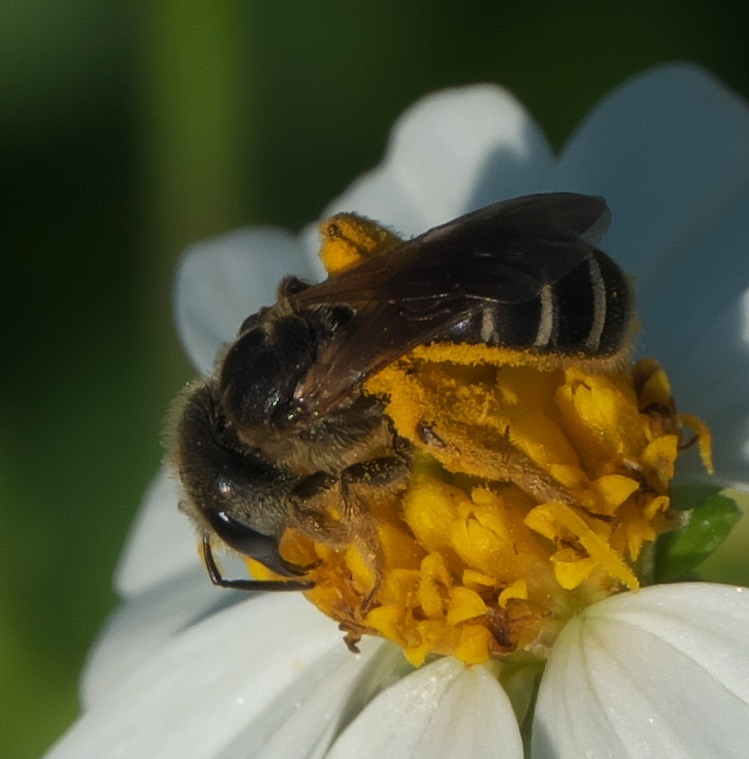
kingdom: Animalia
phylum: Arthropoda
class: Insecta
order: Hymenoptera
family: Halictidae
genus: Halictus
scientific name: Halictus poeyi
